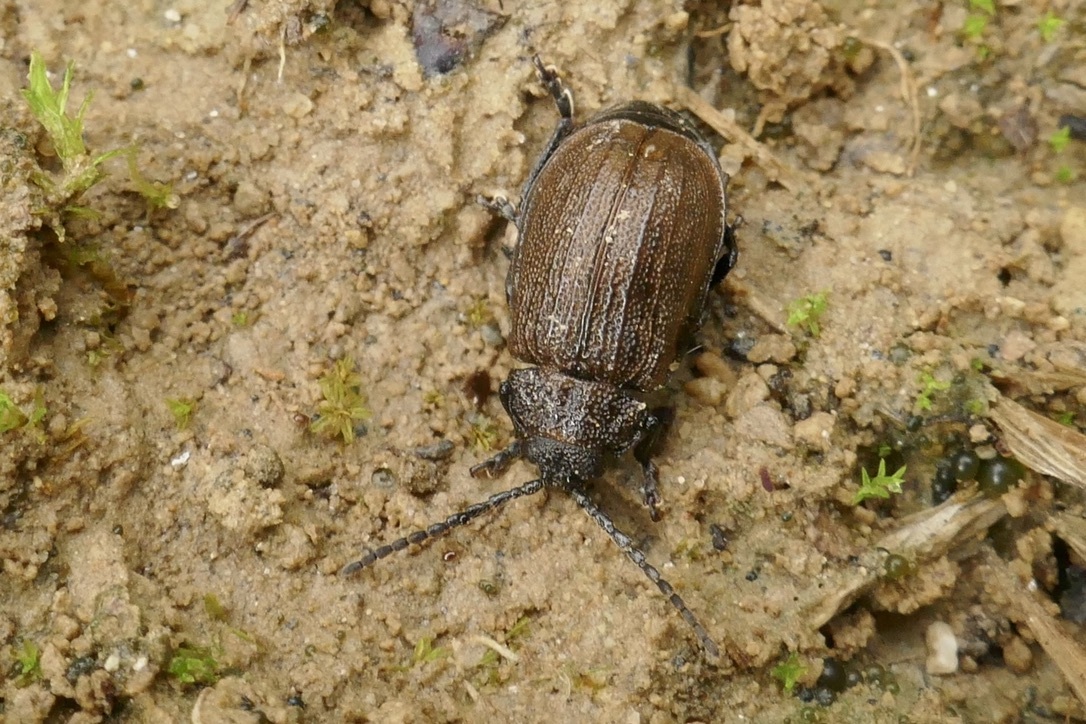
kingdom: Animalia
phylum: Arthropoda
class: Insecta
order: Coleoptera
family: Chrysomelidae
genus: Galeruca
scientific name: Galeruca pomonae
